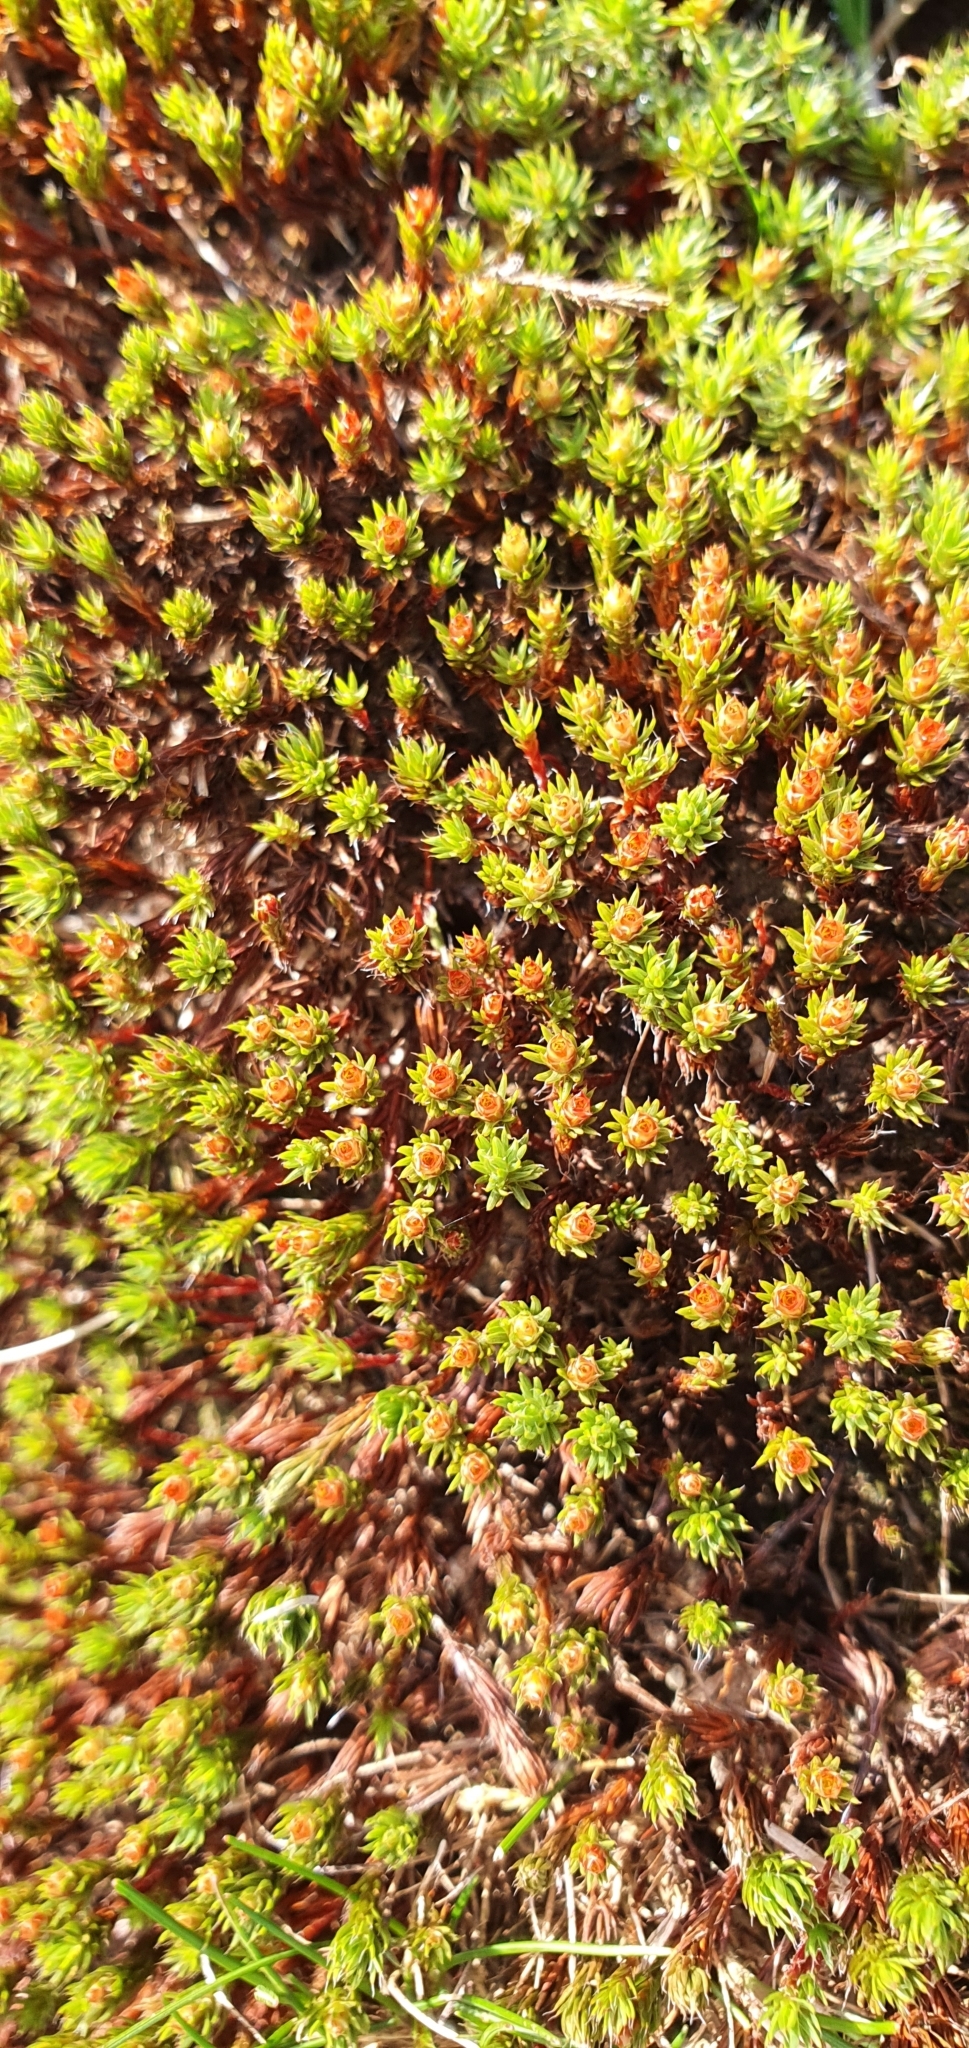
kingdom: Plantae
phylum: Bryophyta
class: Polytrichopsida
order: Polytrichales
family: Polytrichaceae
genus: Polytrichum
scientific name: Polytrichum piliferum
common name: Bristly haircap
